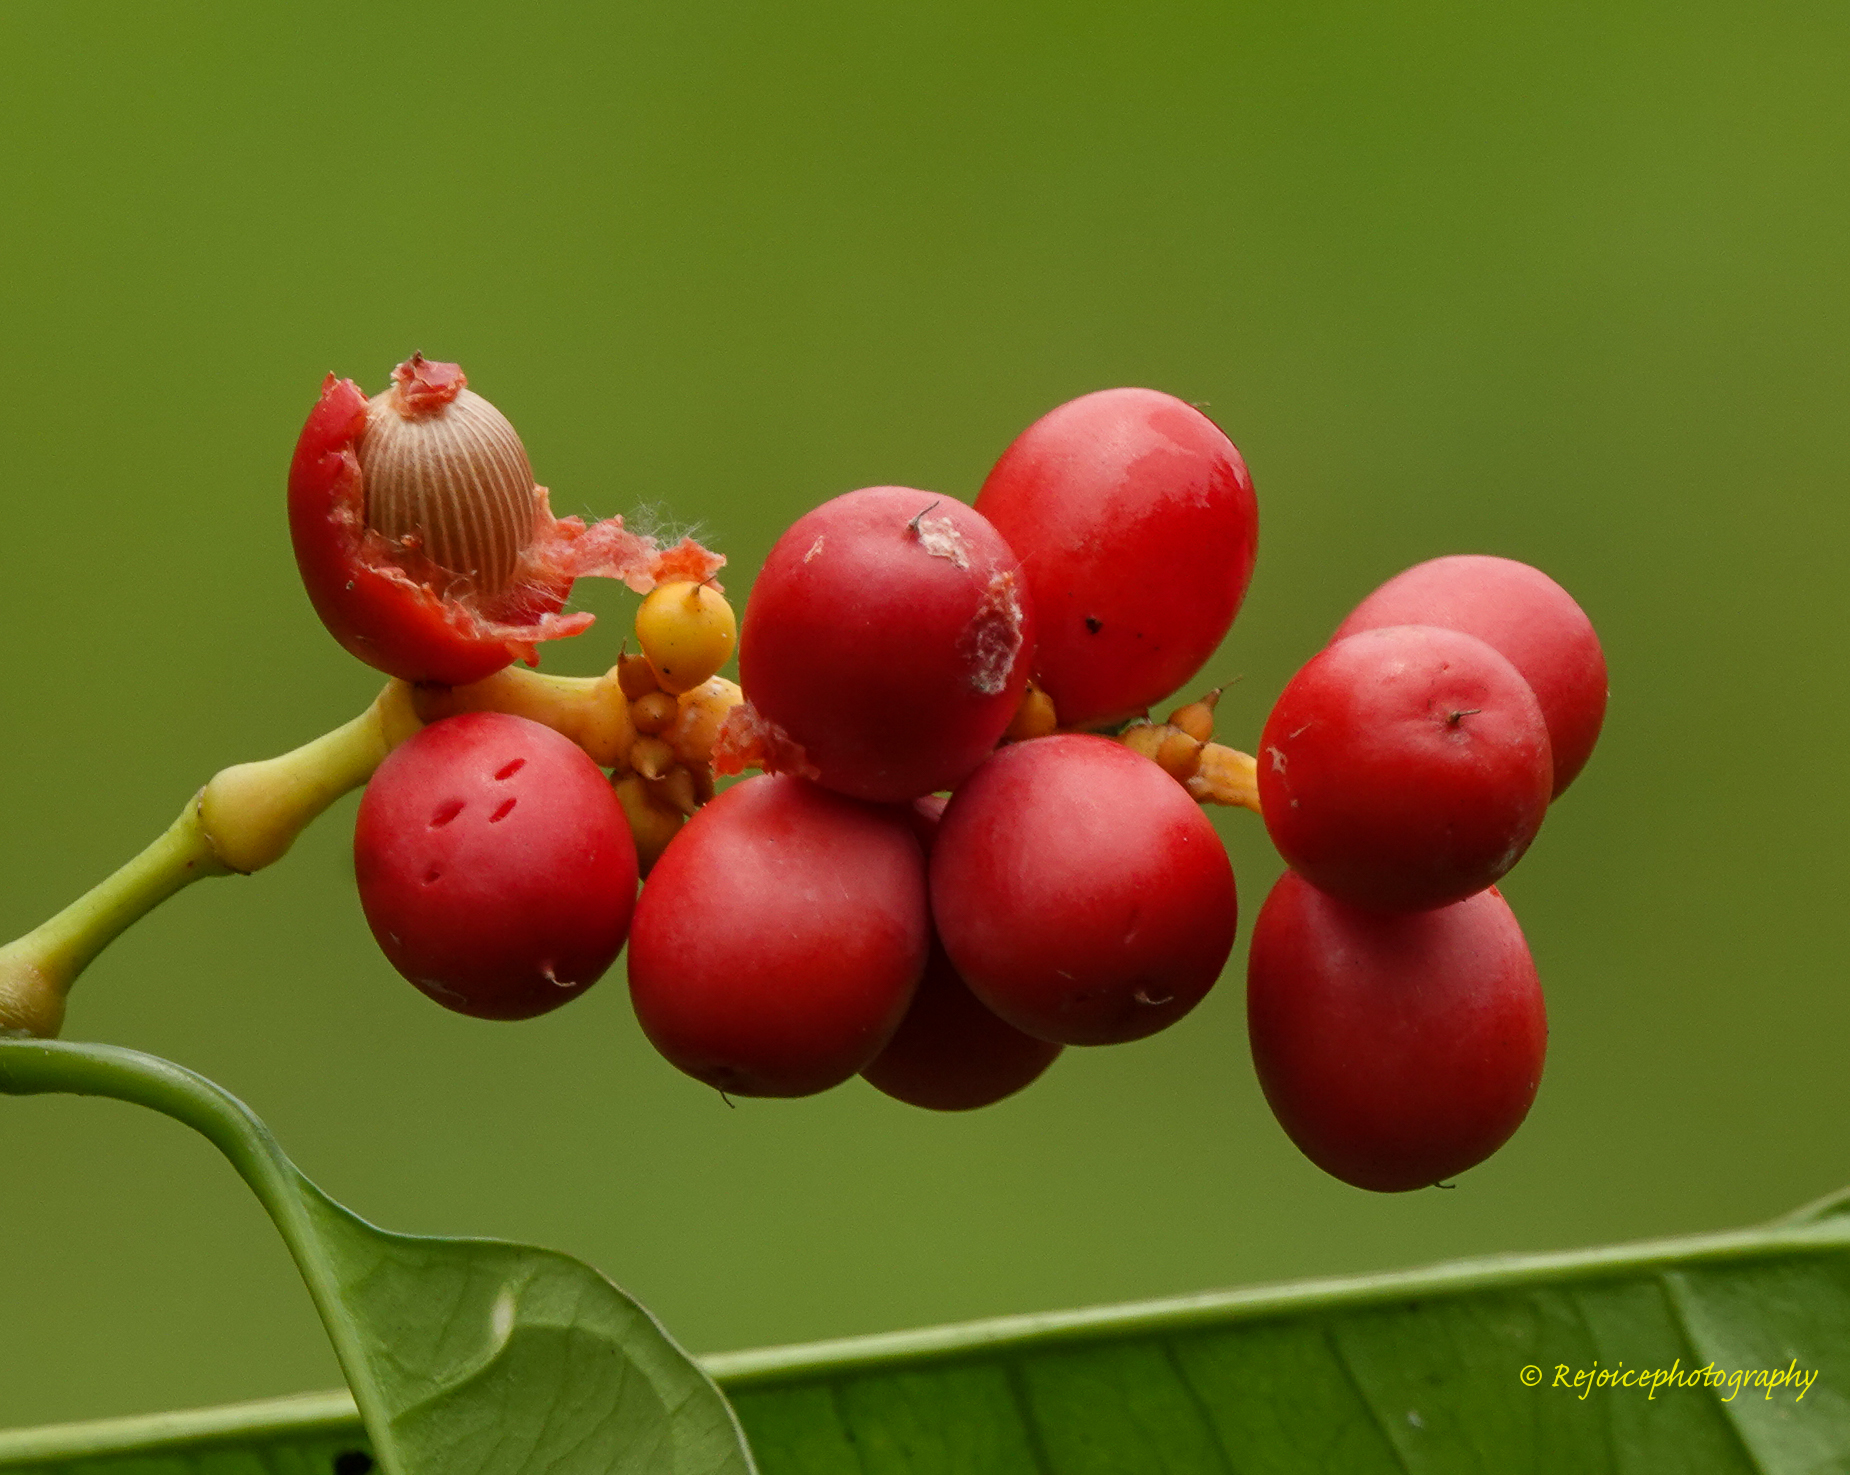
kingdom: Plantae
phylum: Tracheophyta
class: Gnetopsida
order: Gnetales
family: Gnetaceae
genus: Gnetum
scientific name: Gnetum gnemon
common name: Spanish joint-fir
